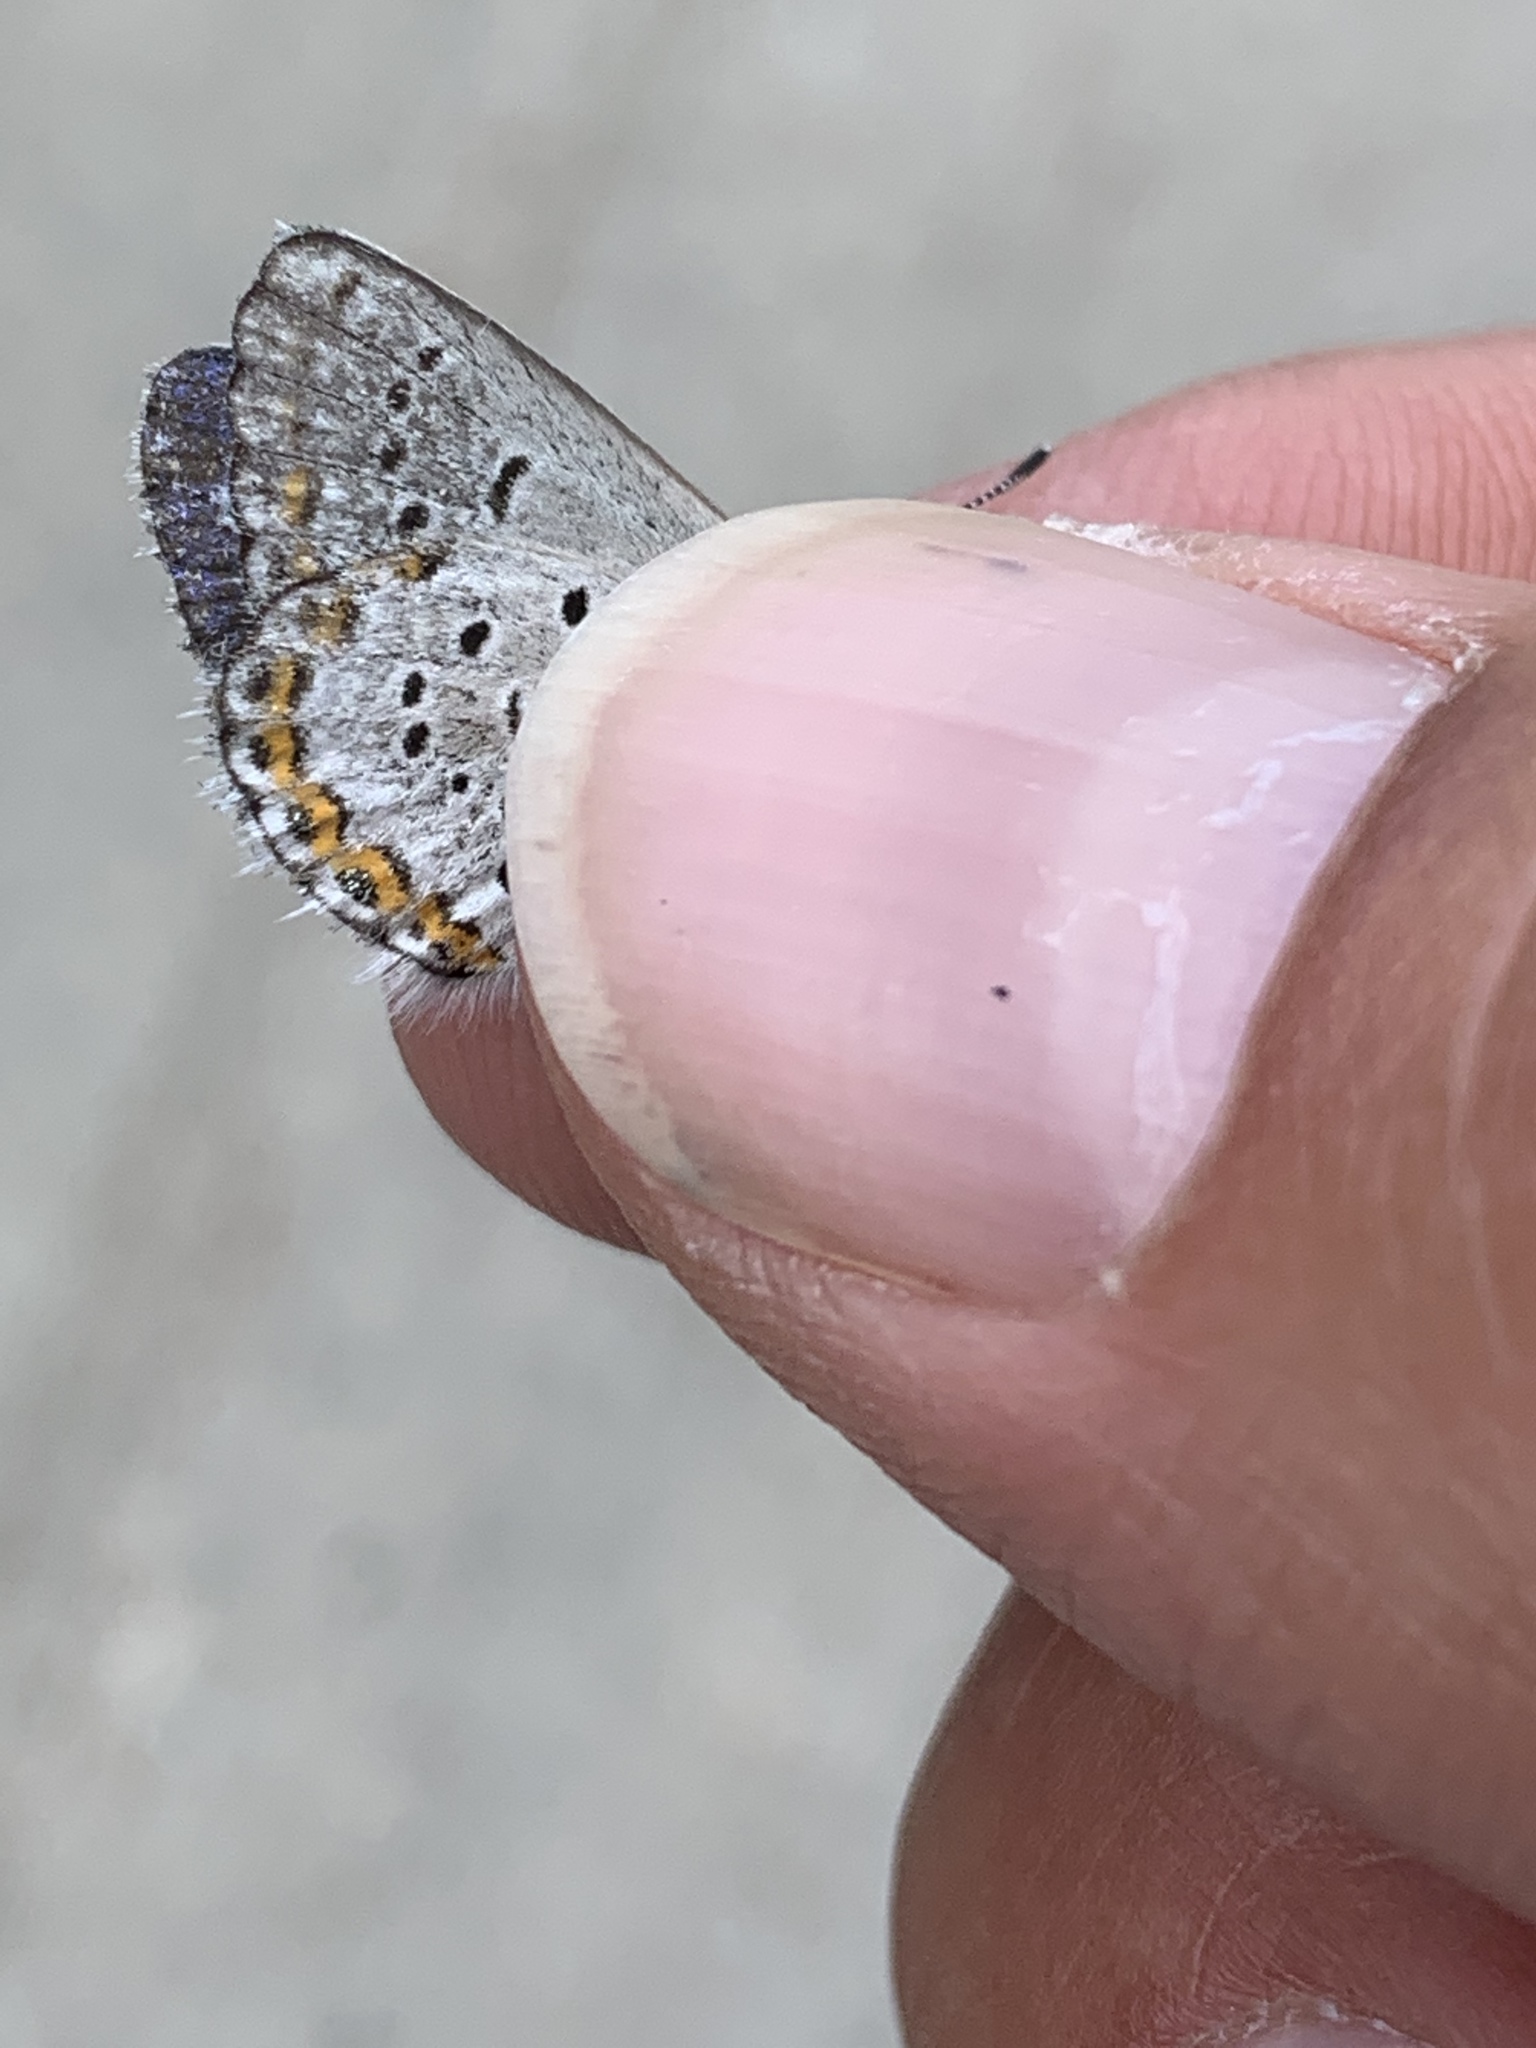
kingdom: Animalia
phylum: Arthropoda
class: Insecta
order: Lepidoptera
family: Lycaenidae
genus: Lycaeides
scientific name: Lycaeides idas
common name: Northern blue
